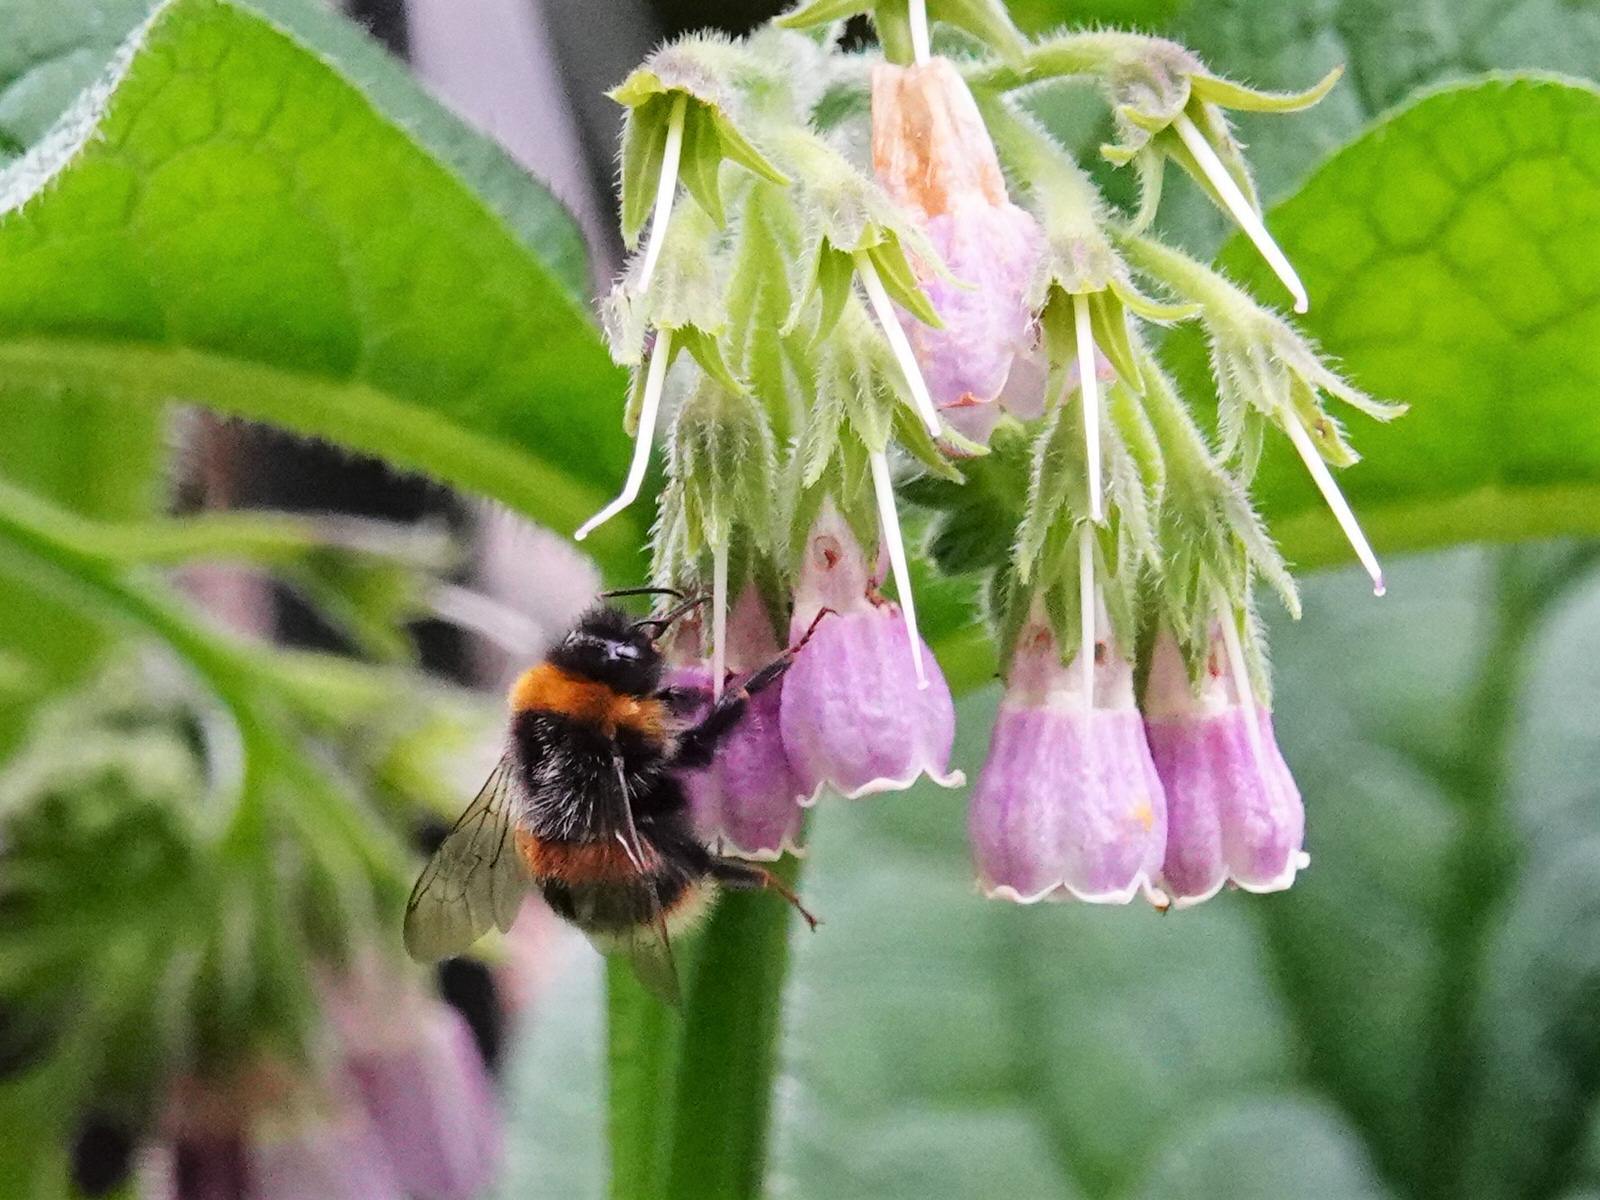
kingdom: Animalia
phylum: Arthropoda
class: Insecta
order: Hymenoptera
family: Apidae
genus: Bombus
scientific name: Bombus terrestris
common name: Buff-tailed bumblebee
